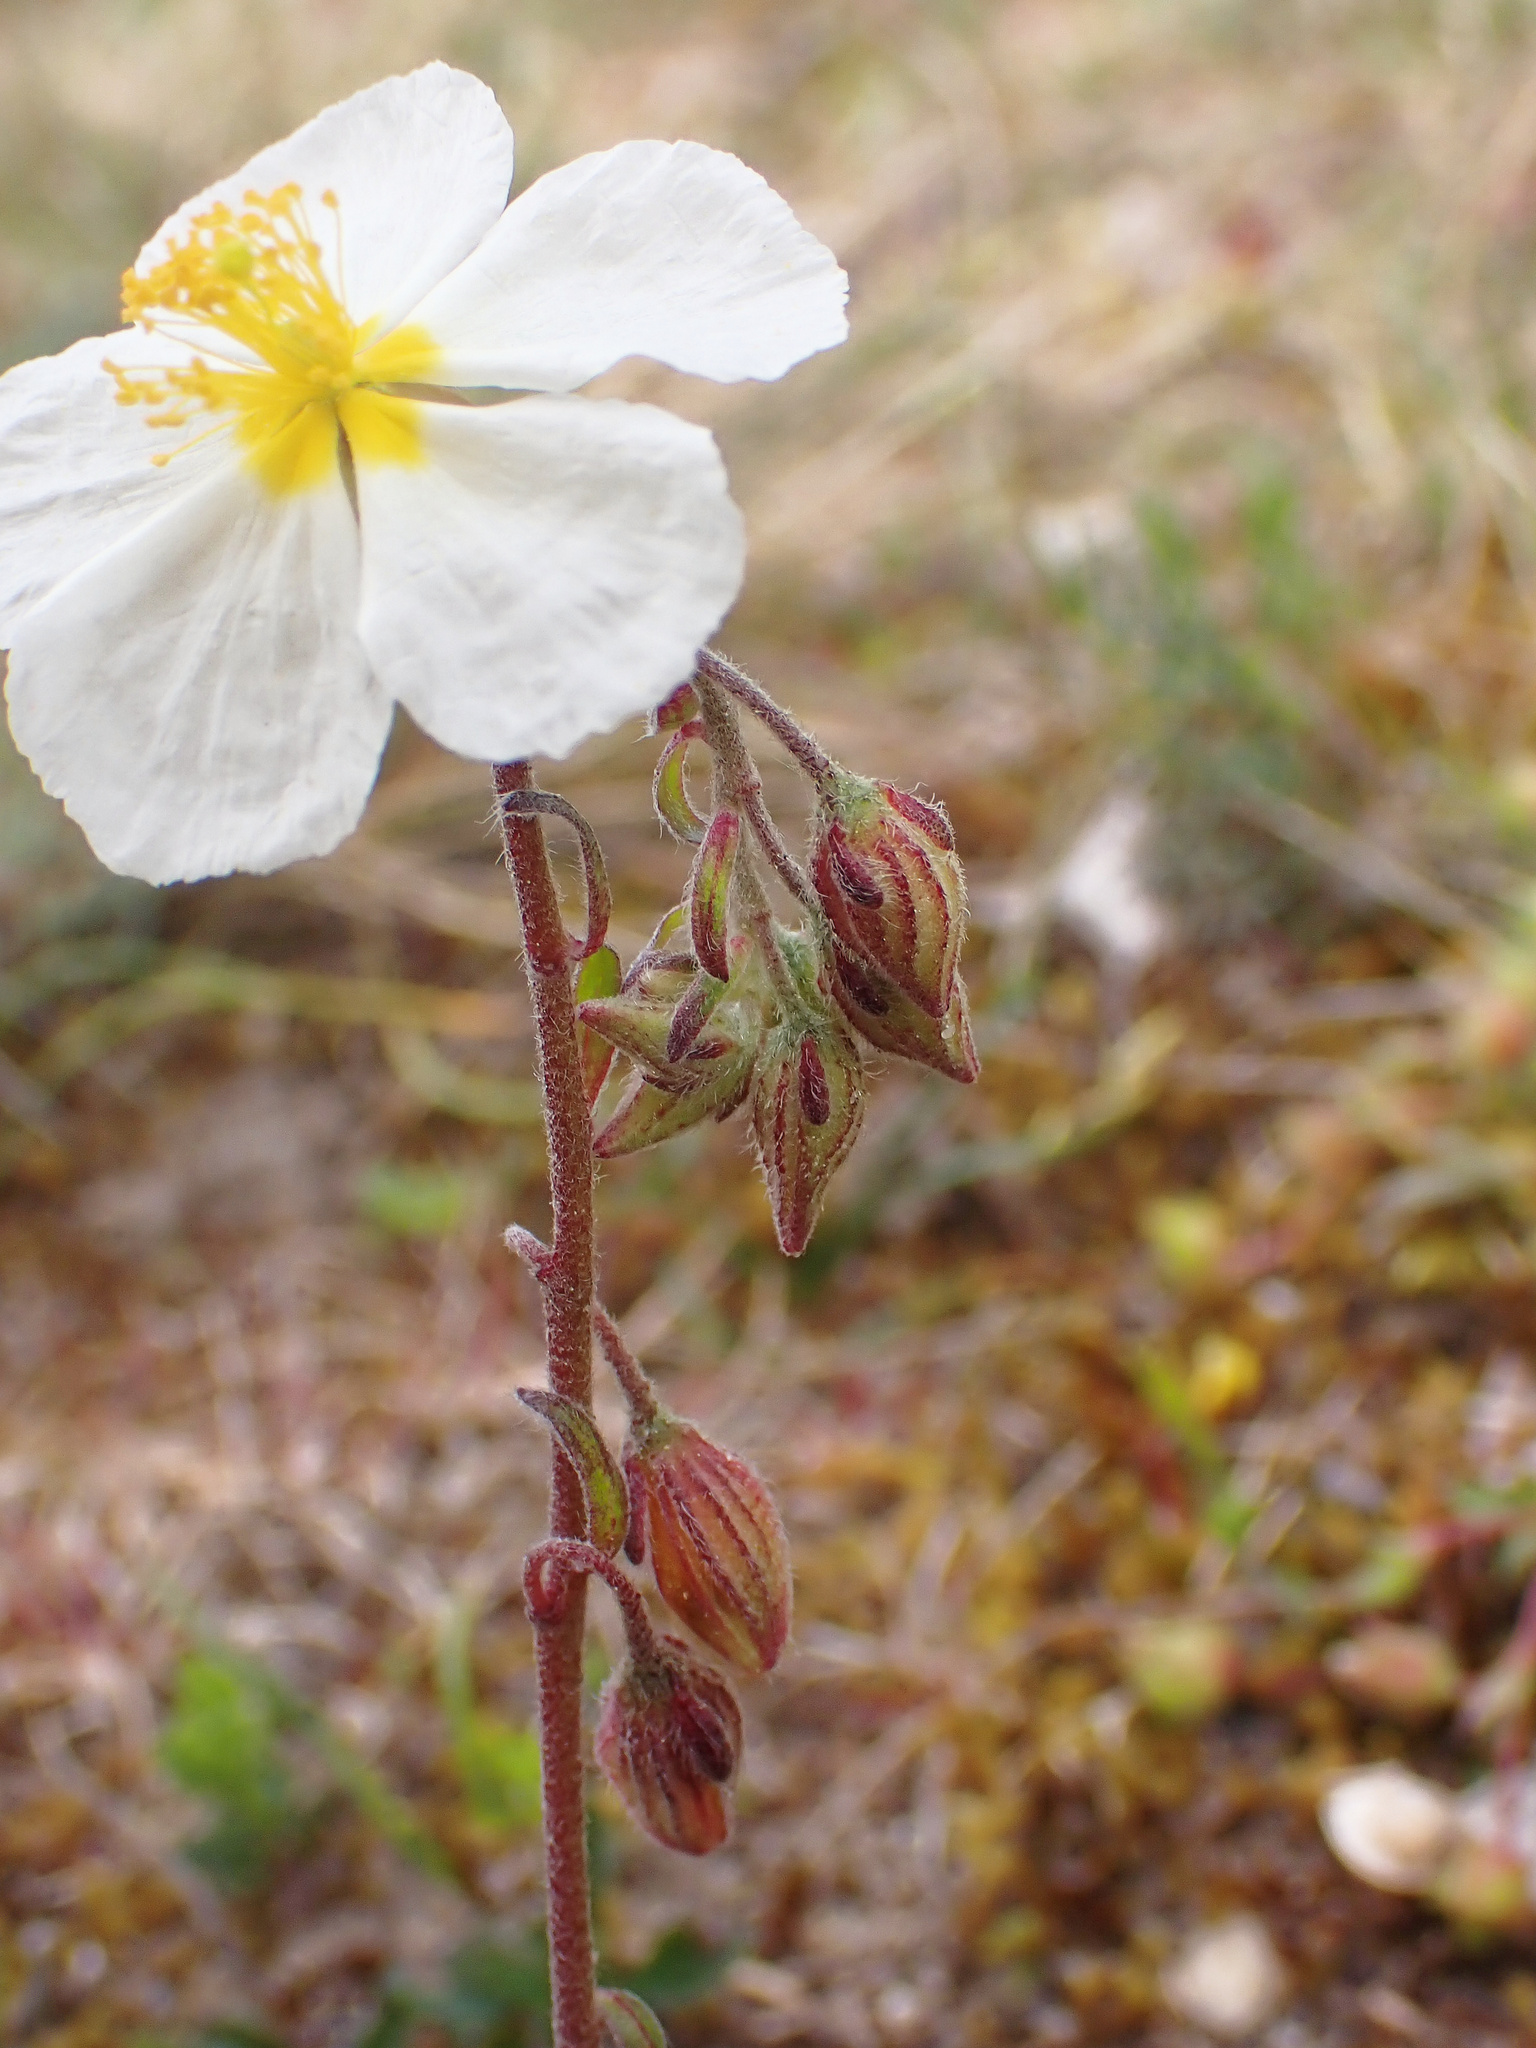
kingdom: Plantae
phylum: Tracheophyta
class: Magnoliopsida
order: Malvales
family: Cistaceae
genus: Helianthemum
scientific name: Helianthemum apenninum
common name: White rock-rose
